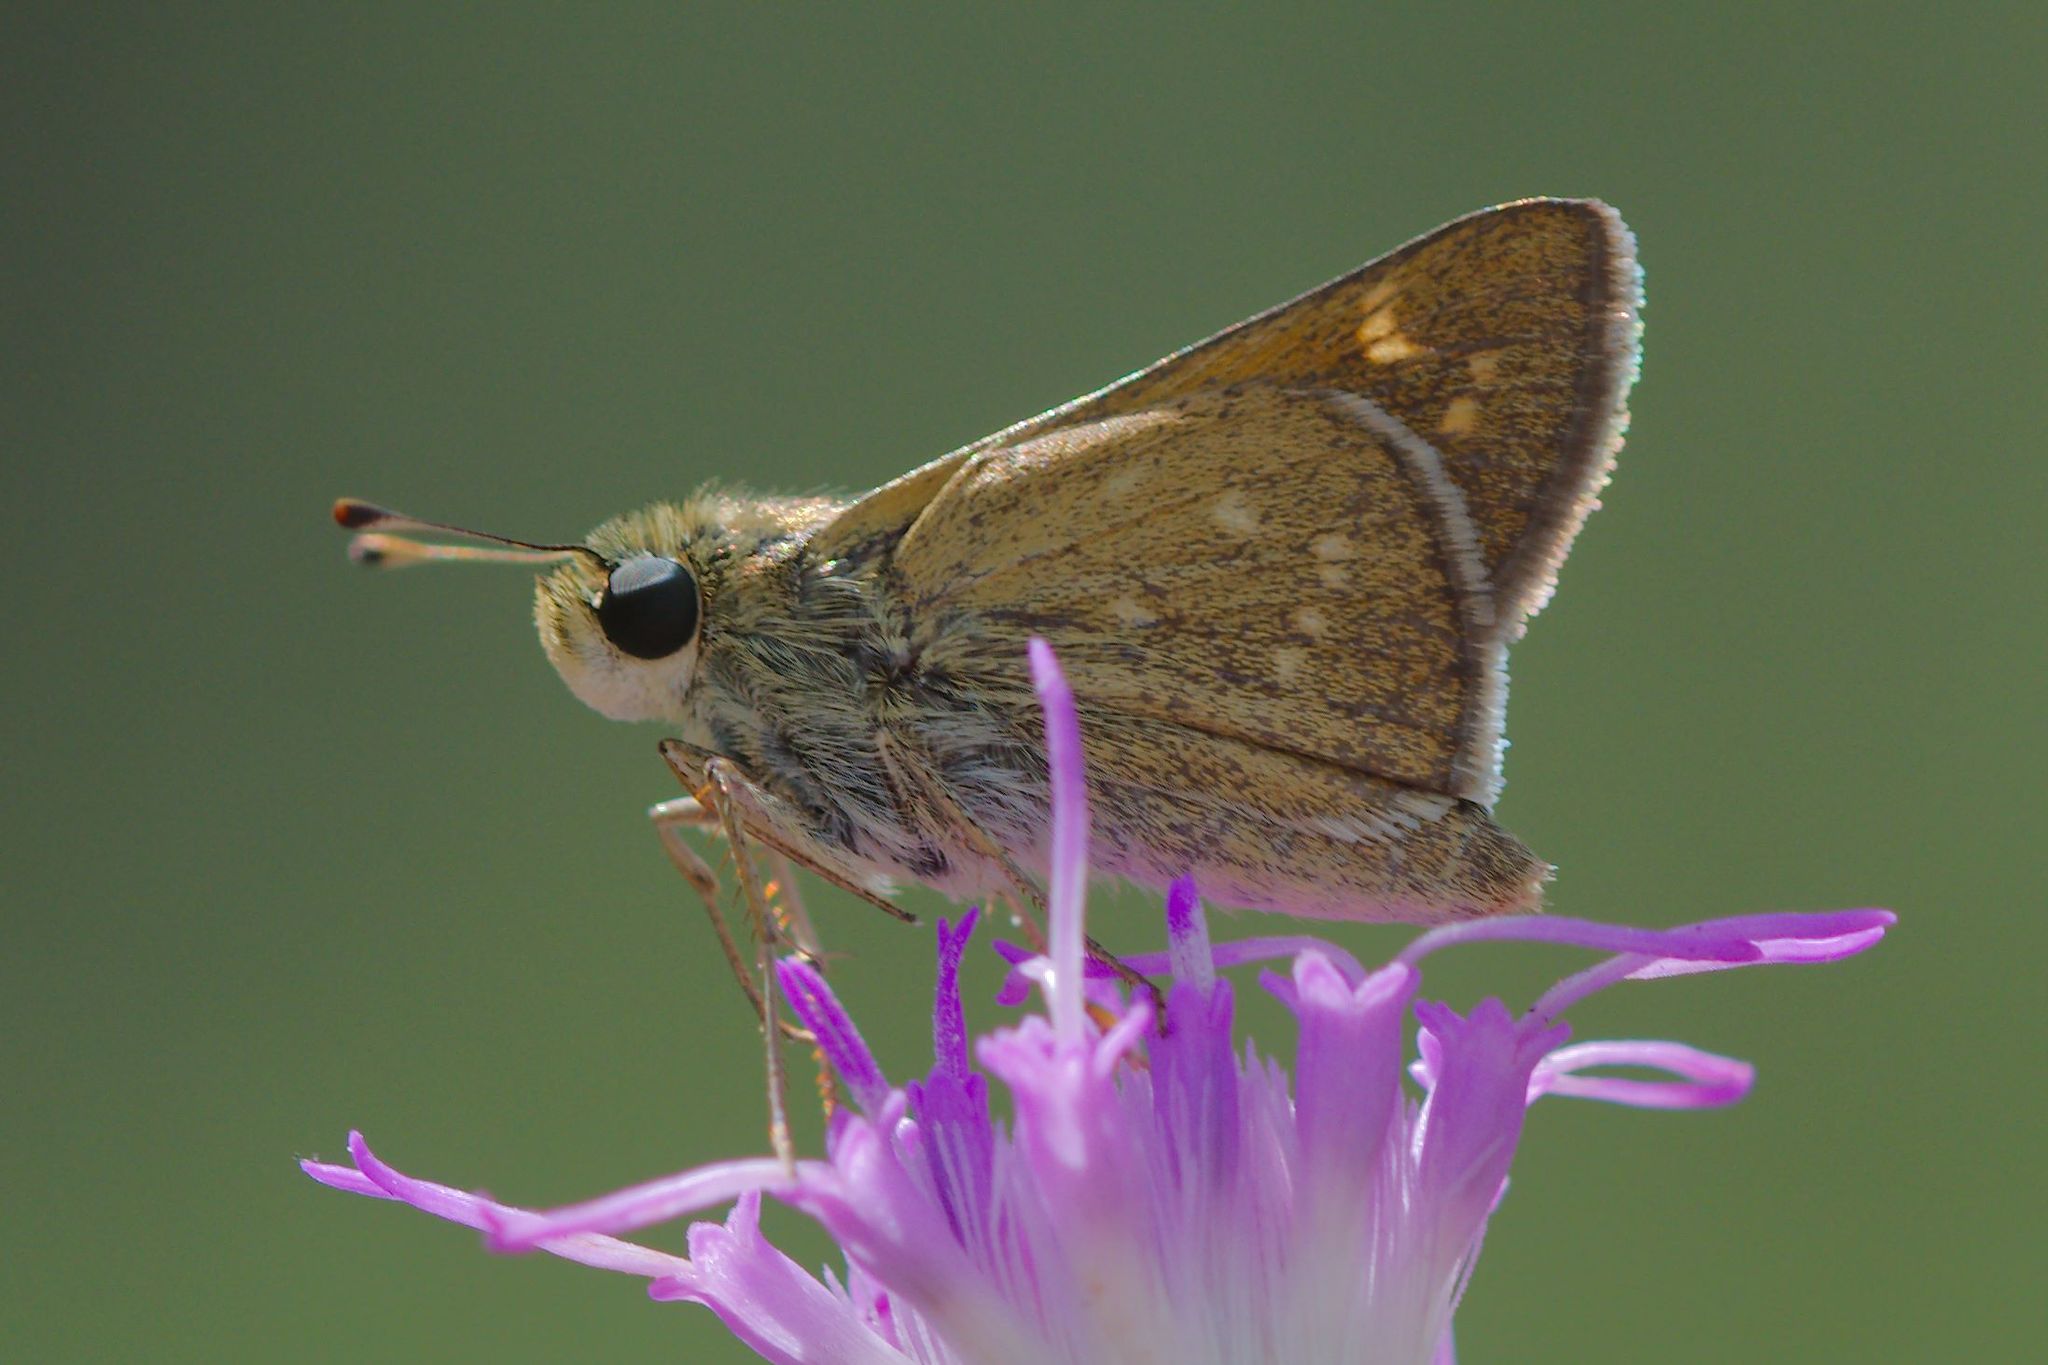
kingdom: Animalia
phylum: Arthropoda
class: Insecta
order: Lepidoptera
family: Hesperiidae
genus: Hesperia
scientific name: Hesperia attalus
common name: Dotted skipper
